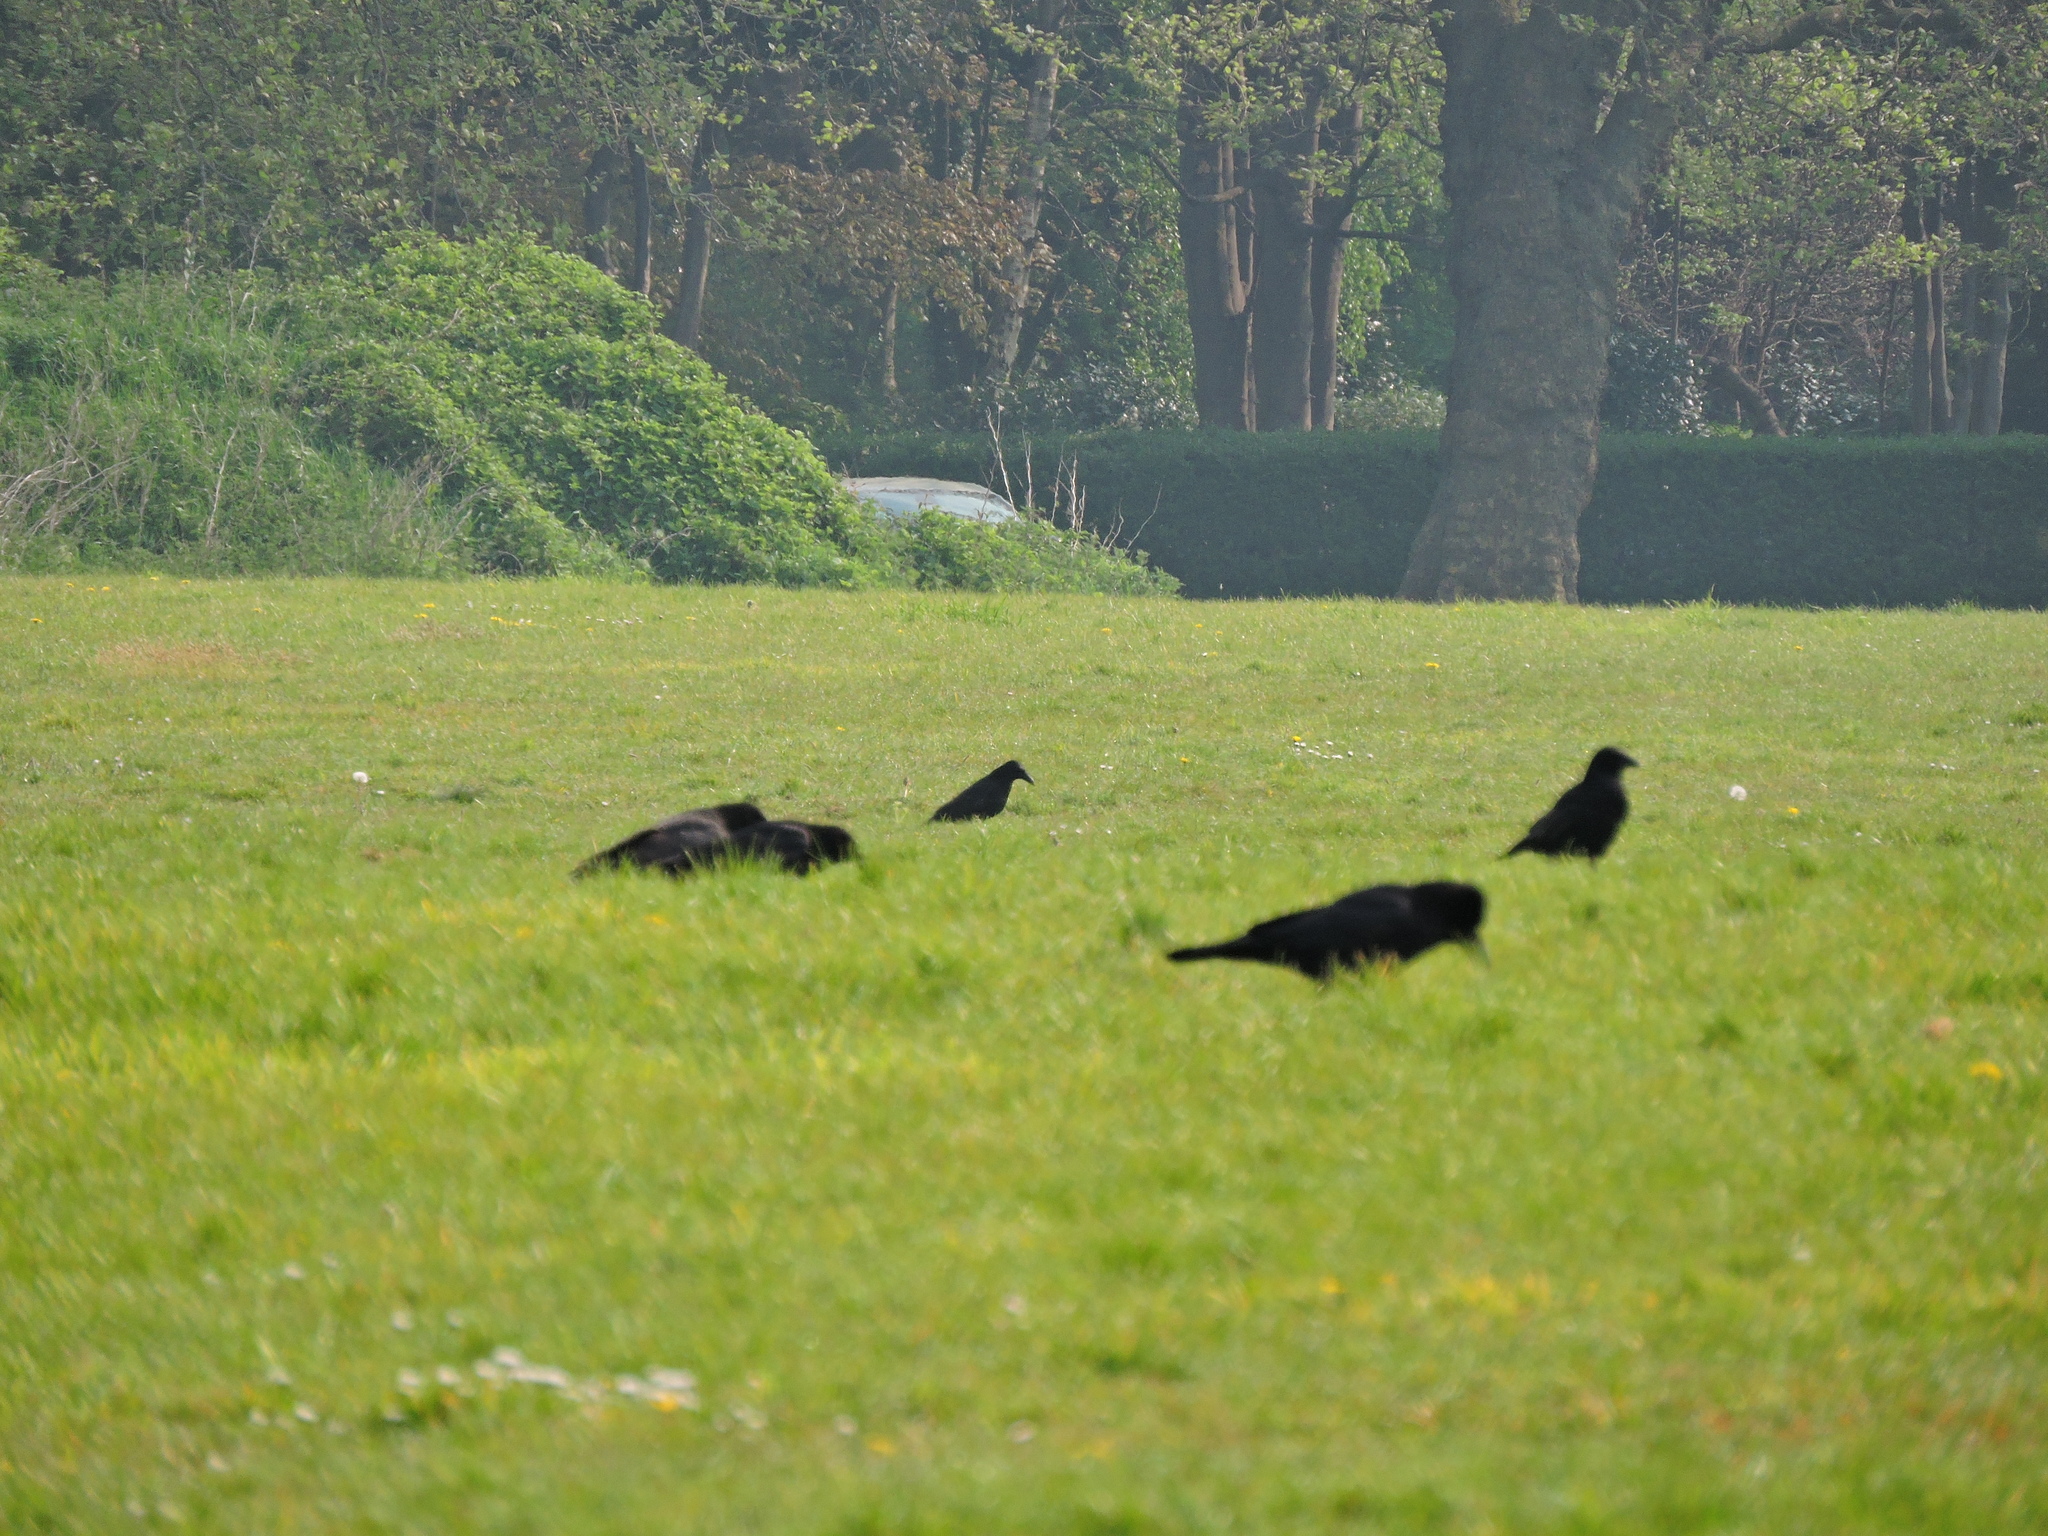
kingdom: Animalia
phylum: Chordata
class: Aves
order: Passeriformes
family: Corvidae
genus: Corvus
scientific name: Corvus corone
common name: Carrion crow
